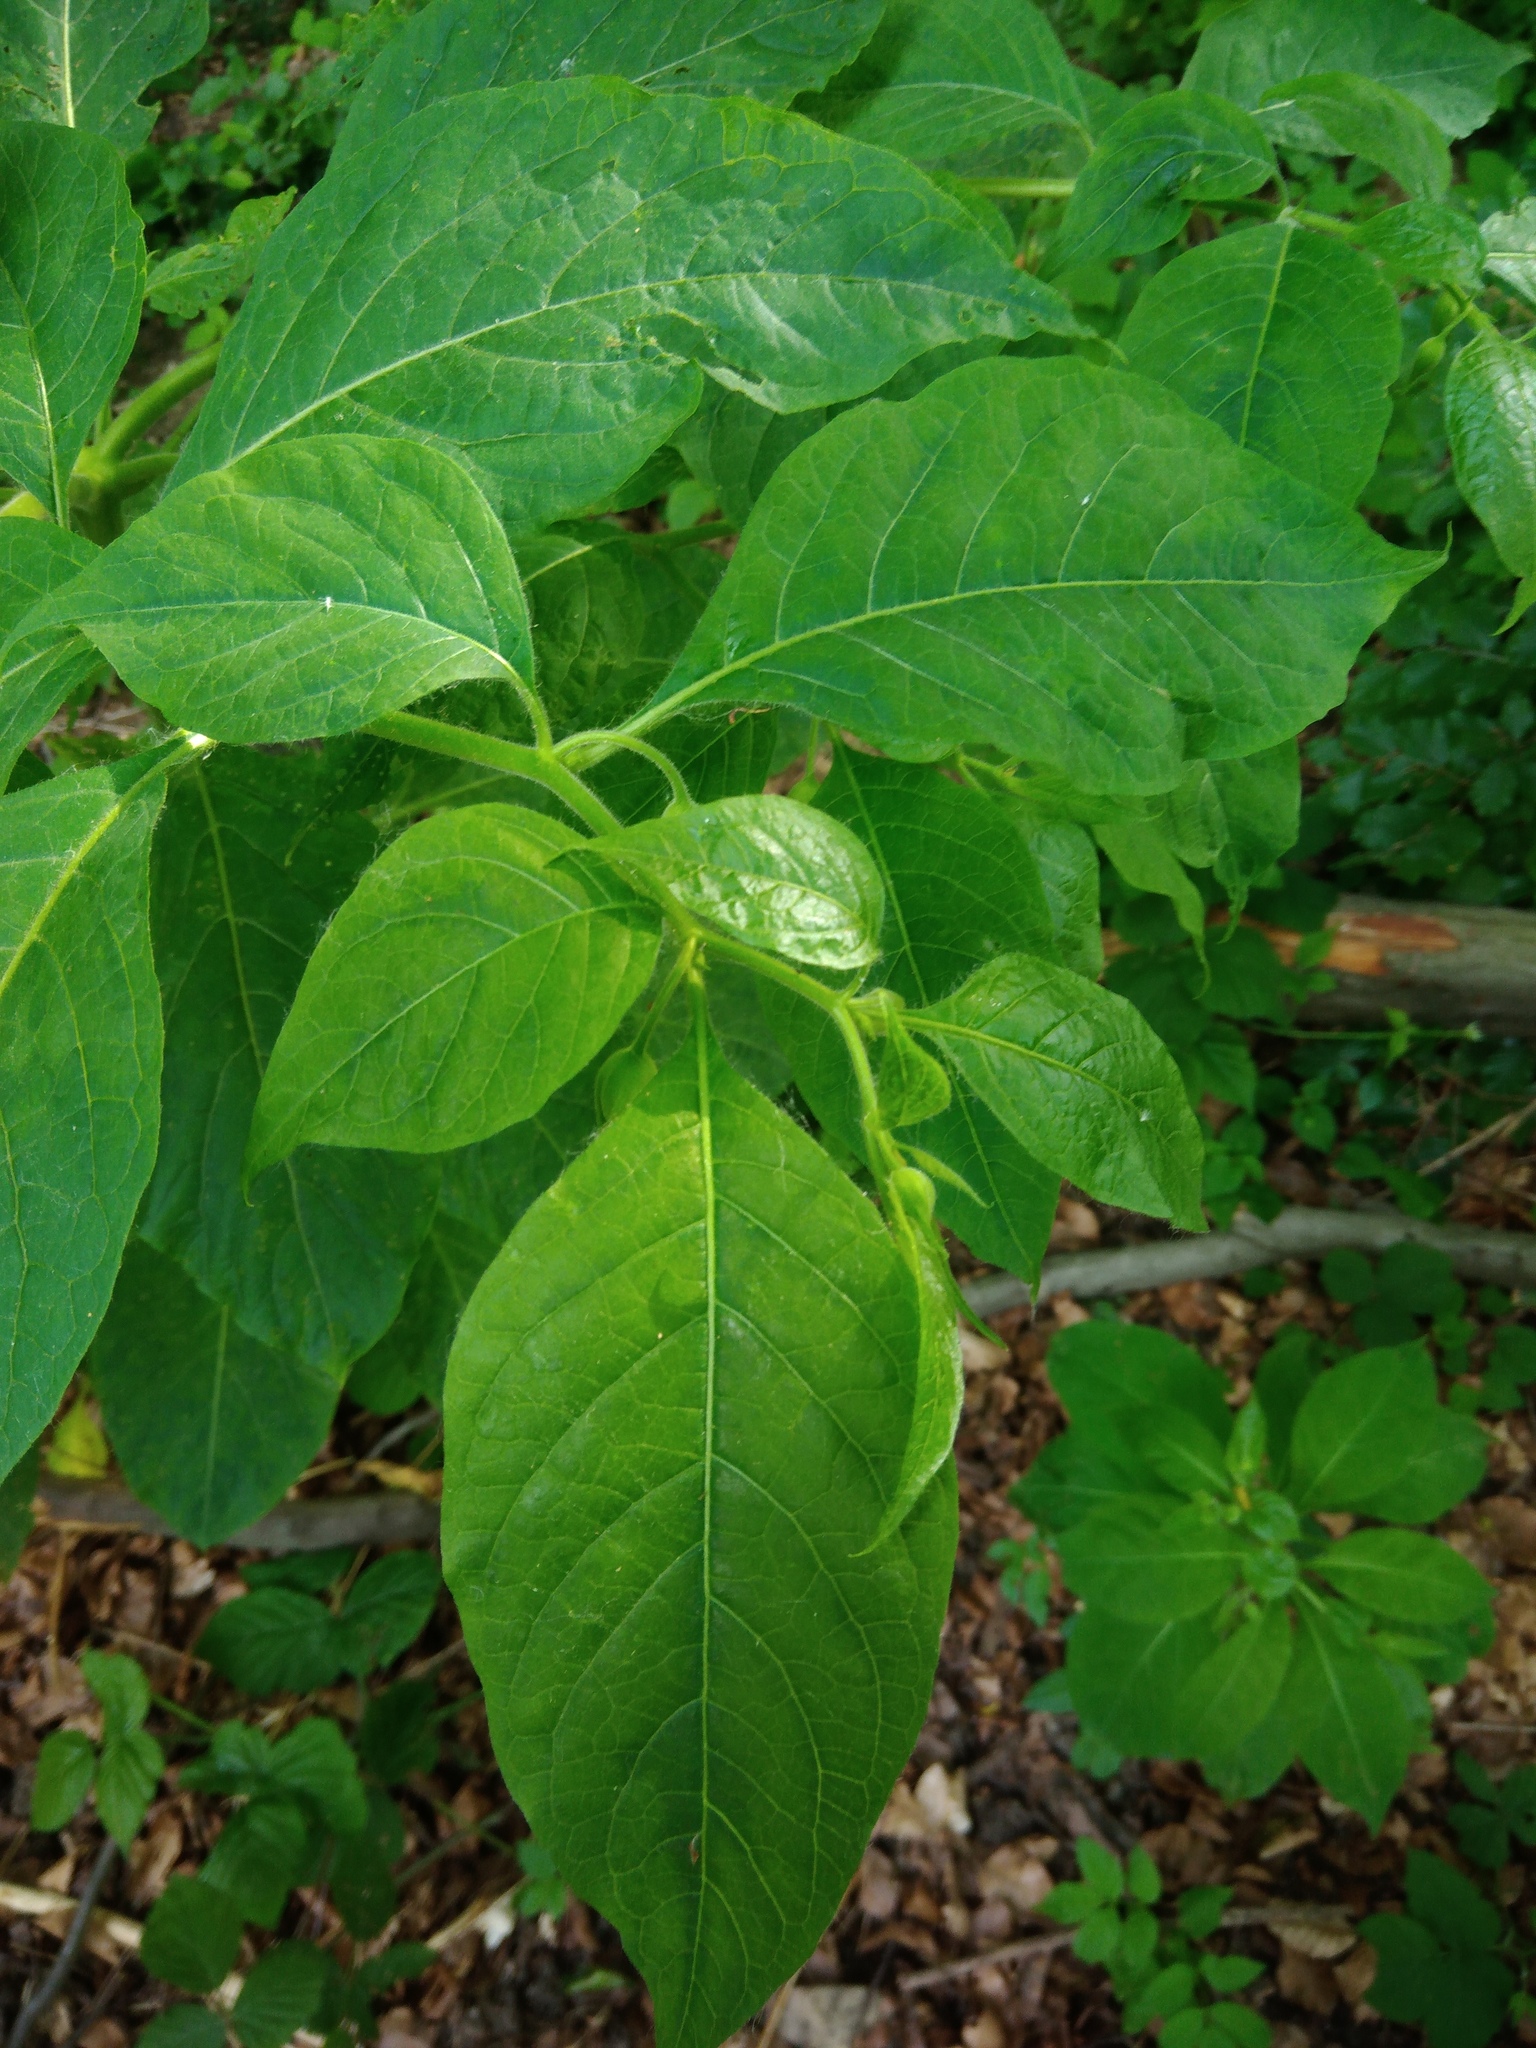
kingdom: Plantae
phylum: Tracheophyta
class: Magnoliopsida
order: Solanales
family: Solanaceae
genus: Atropa
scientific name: Atropa belladonna
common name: Deadly nightshade
